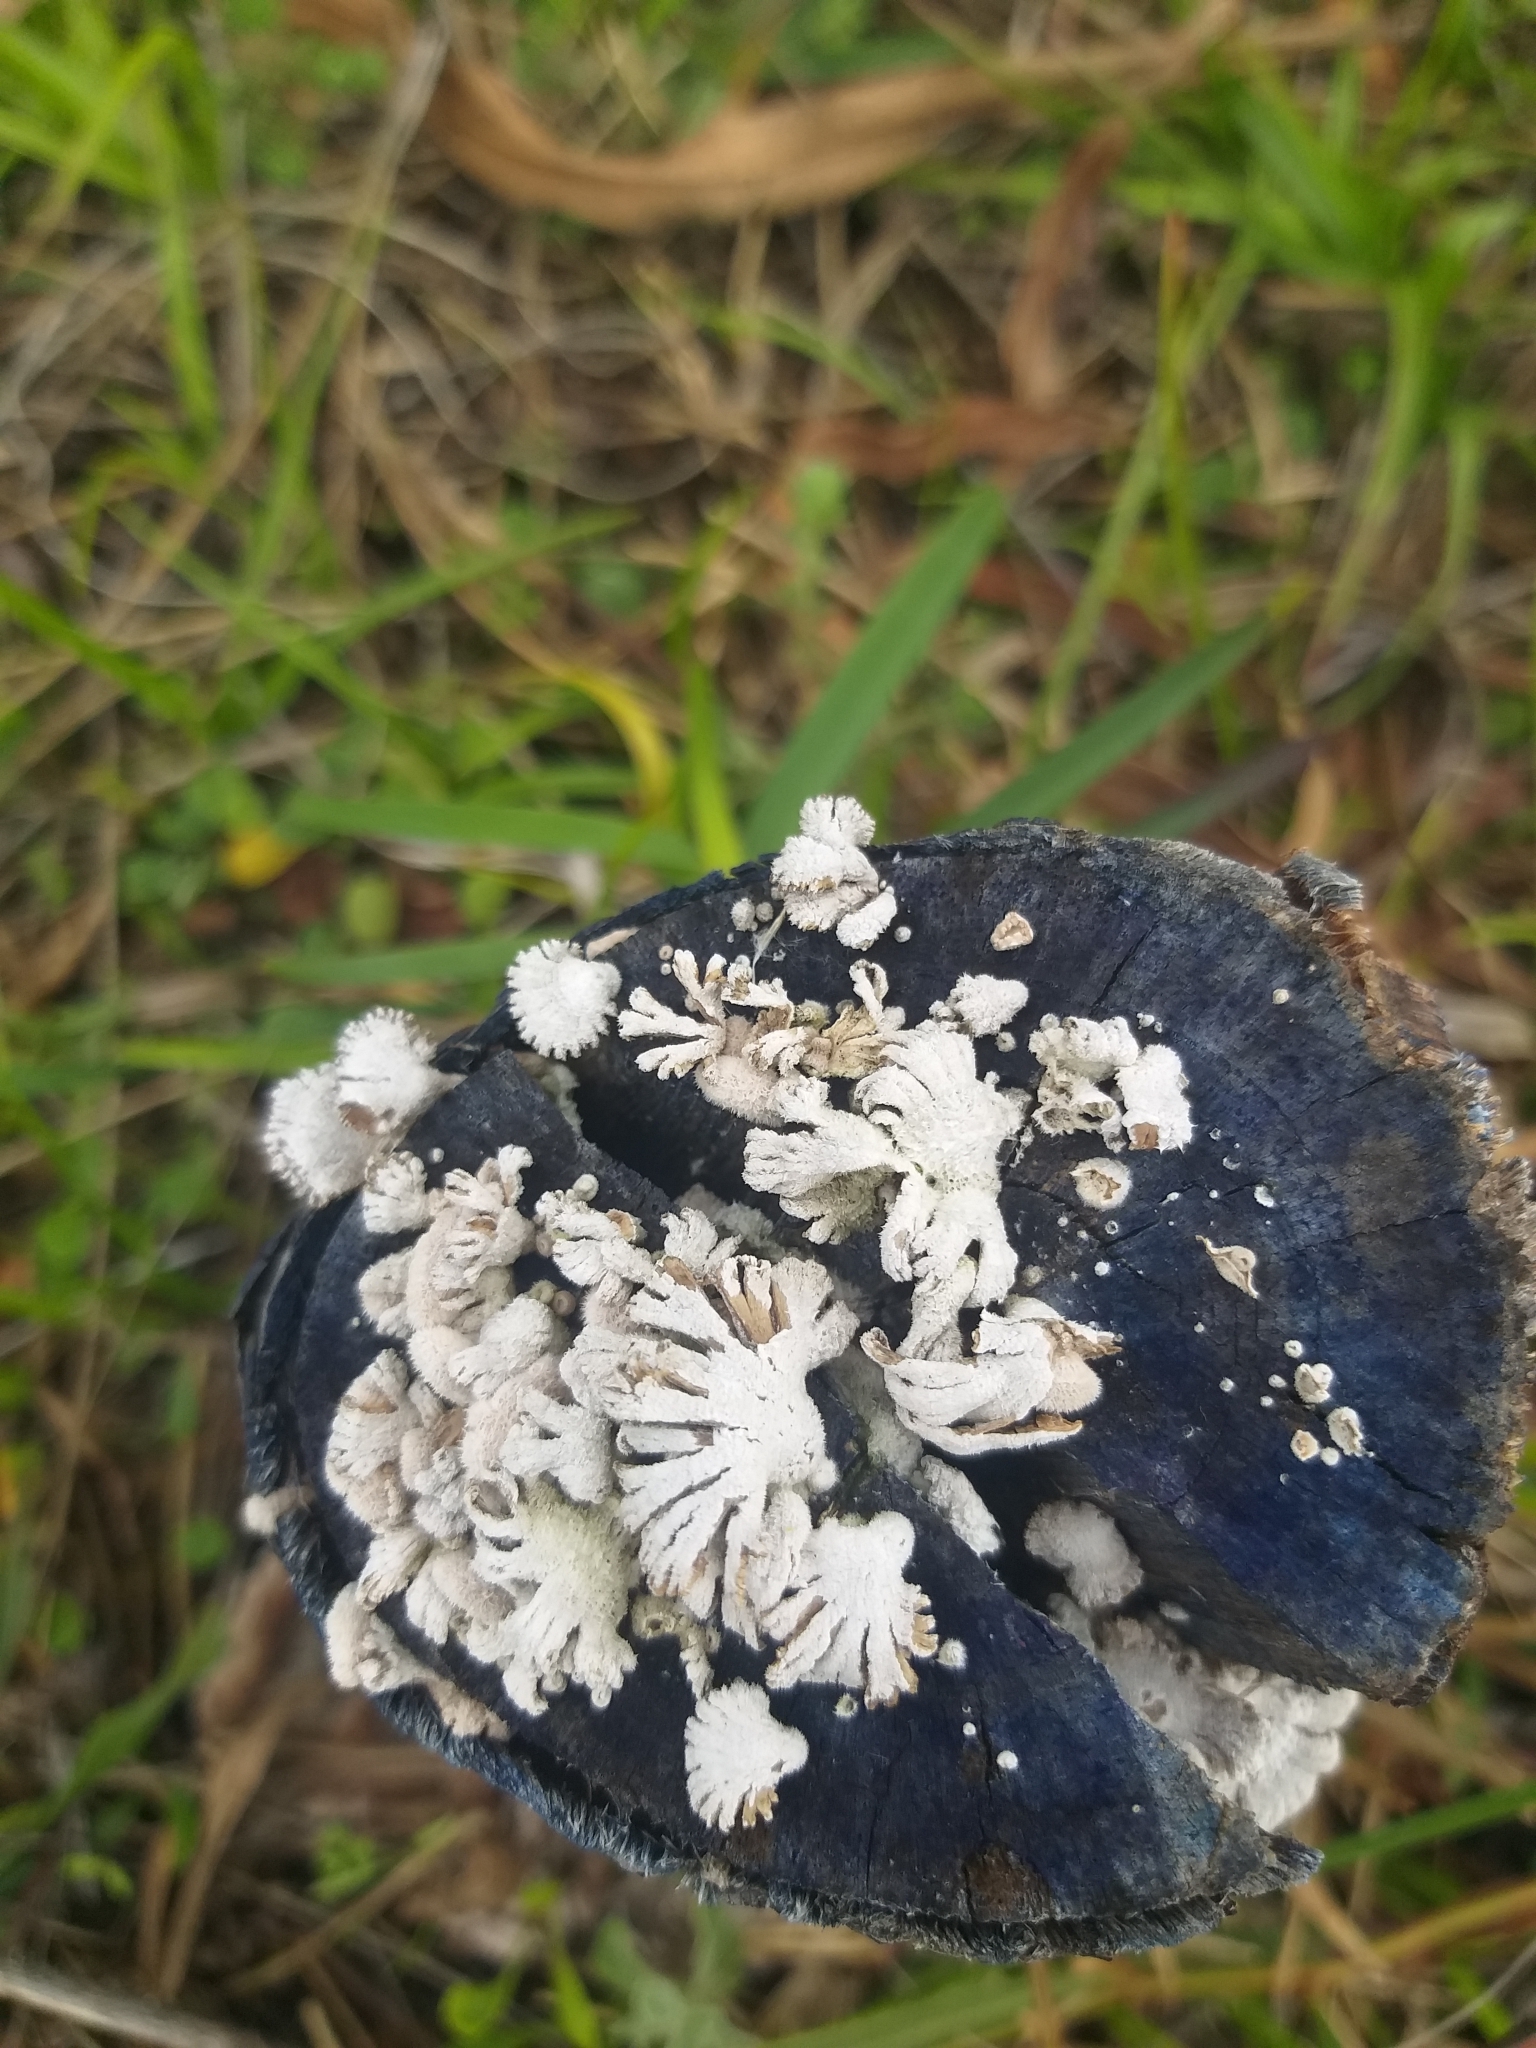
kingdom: Fungi
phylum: Basidiomycota
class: Agaricomycetes
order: Agaricales
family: Schizophyllaceae
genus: Schizophyllum
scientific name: Schizophyllum commune
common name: Common porecrust
